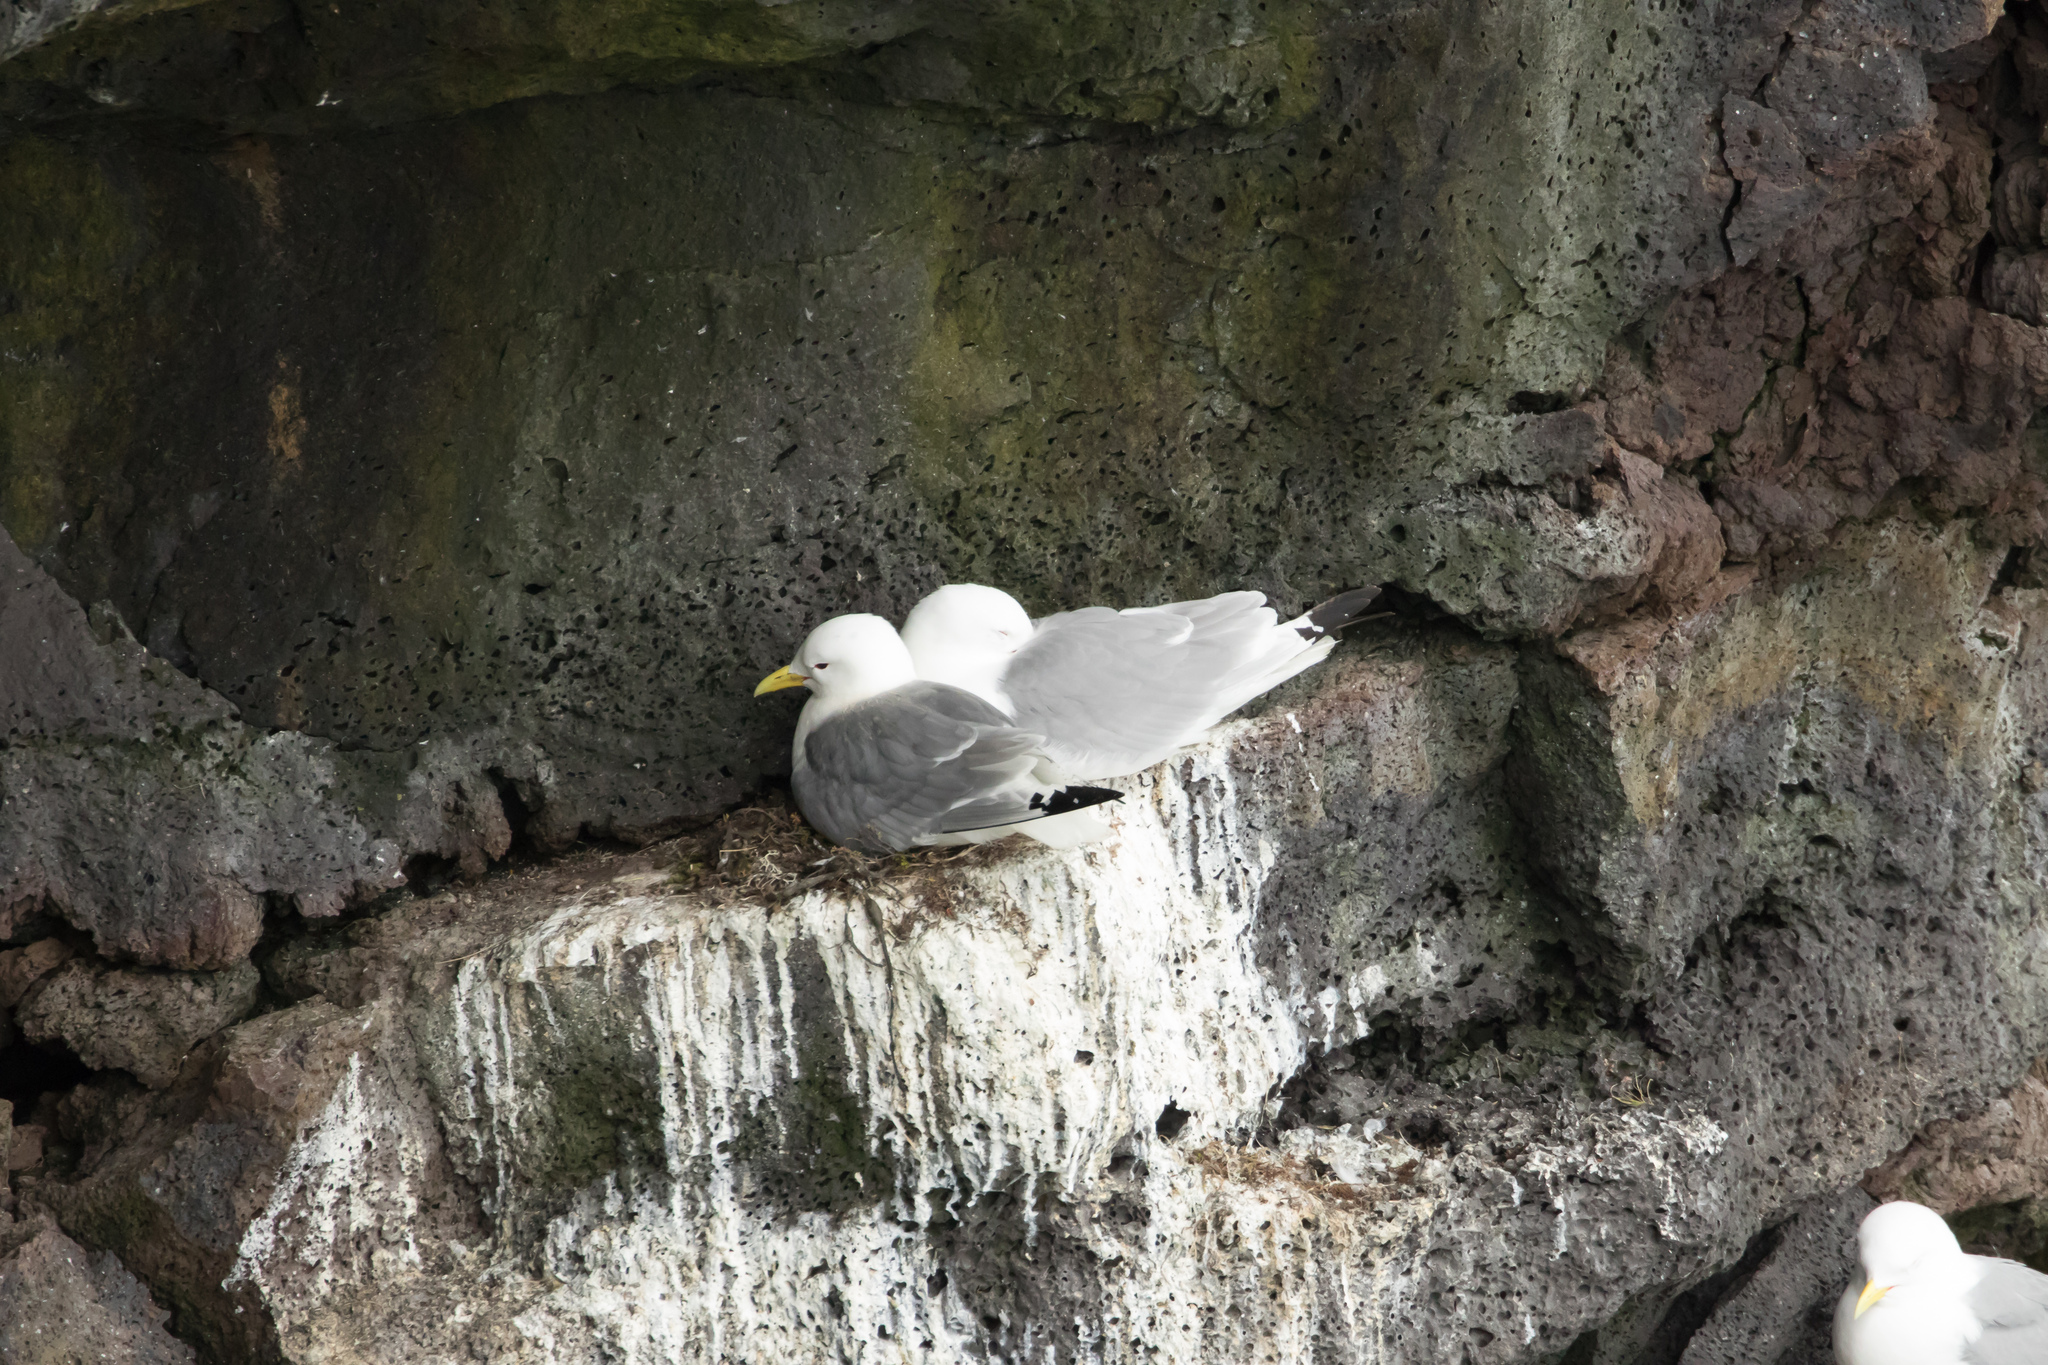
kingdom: Animalia
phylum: Chordata
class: Aves
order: Charadriiformes
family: Laridae
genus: Rissa
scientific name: Rissa tridactyla
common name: Black-legged kittiwake
